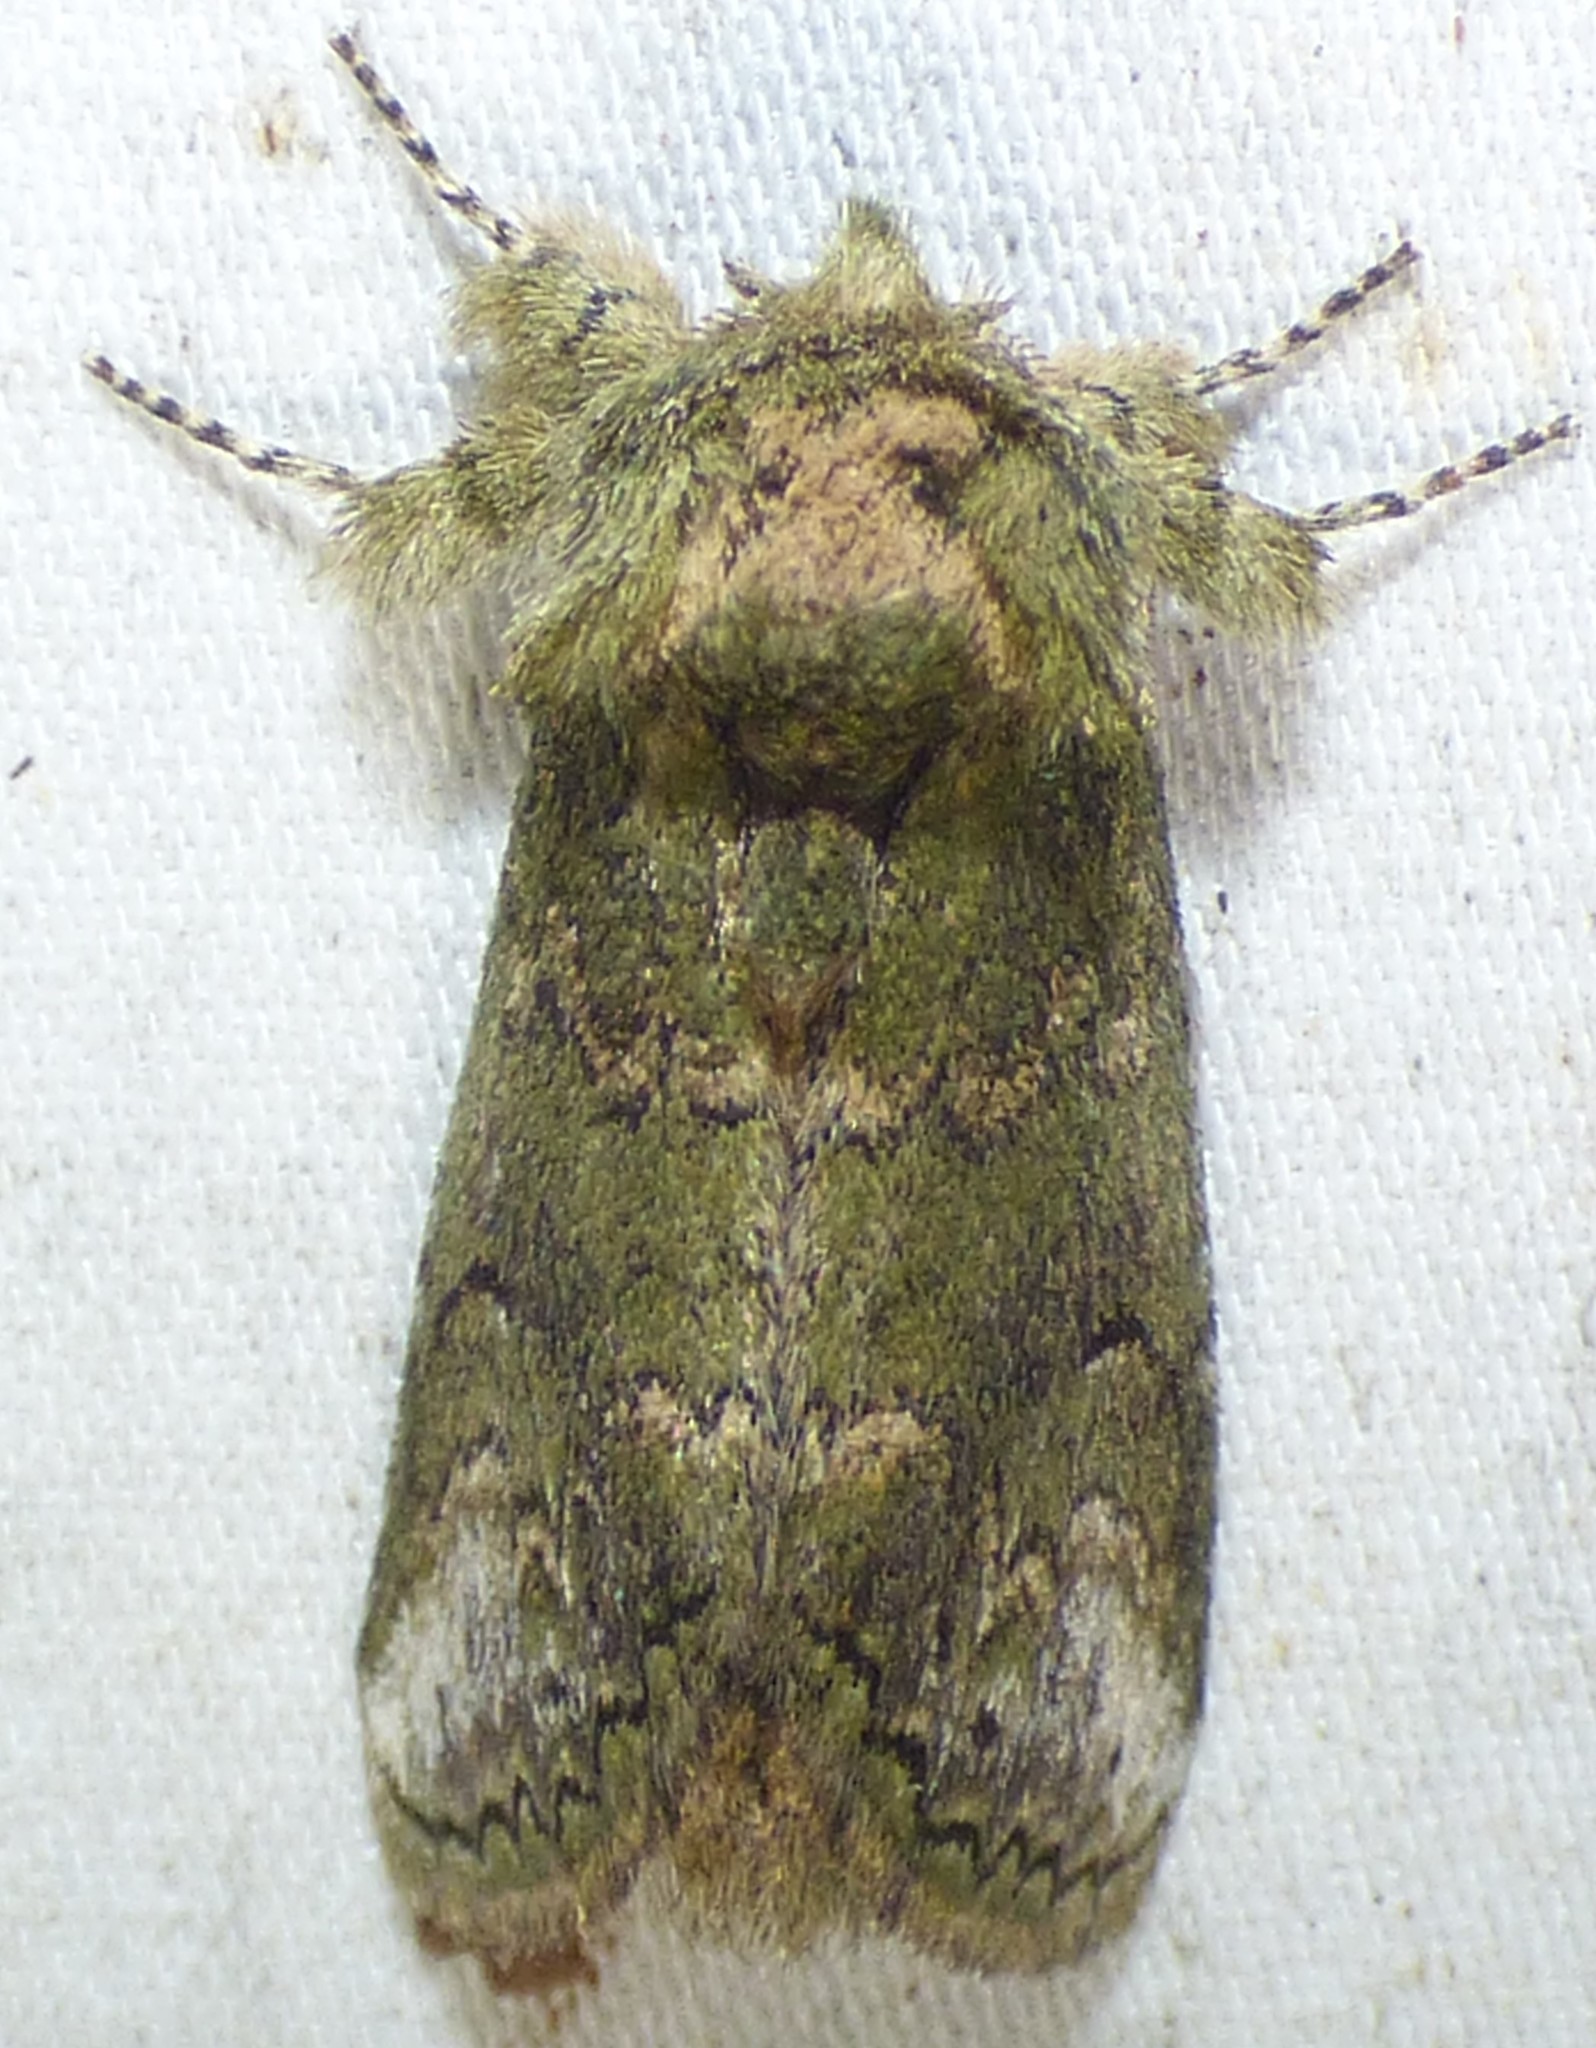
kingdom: Animalia
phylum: Arthropoda
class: Insecta
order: Lepidoptera
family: Notodontidae
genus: Rifargia
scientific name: Rifargia
